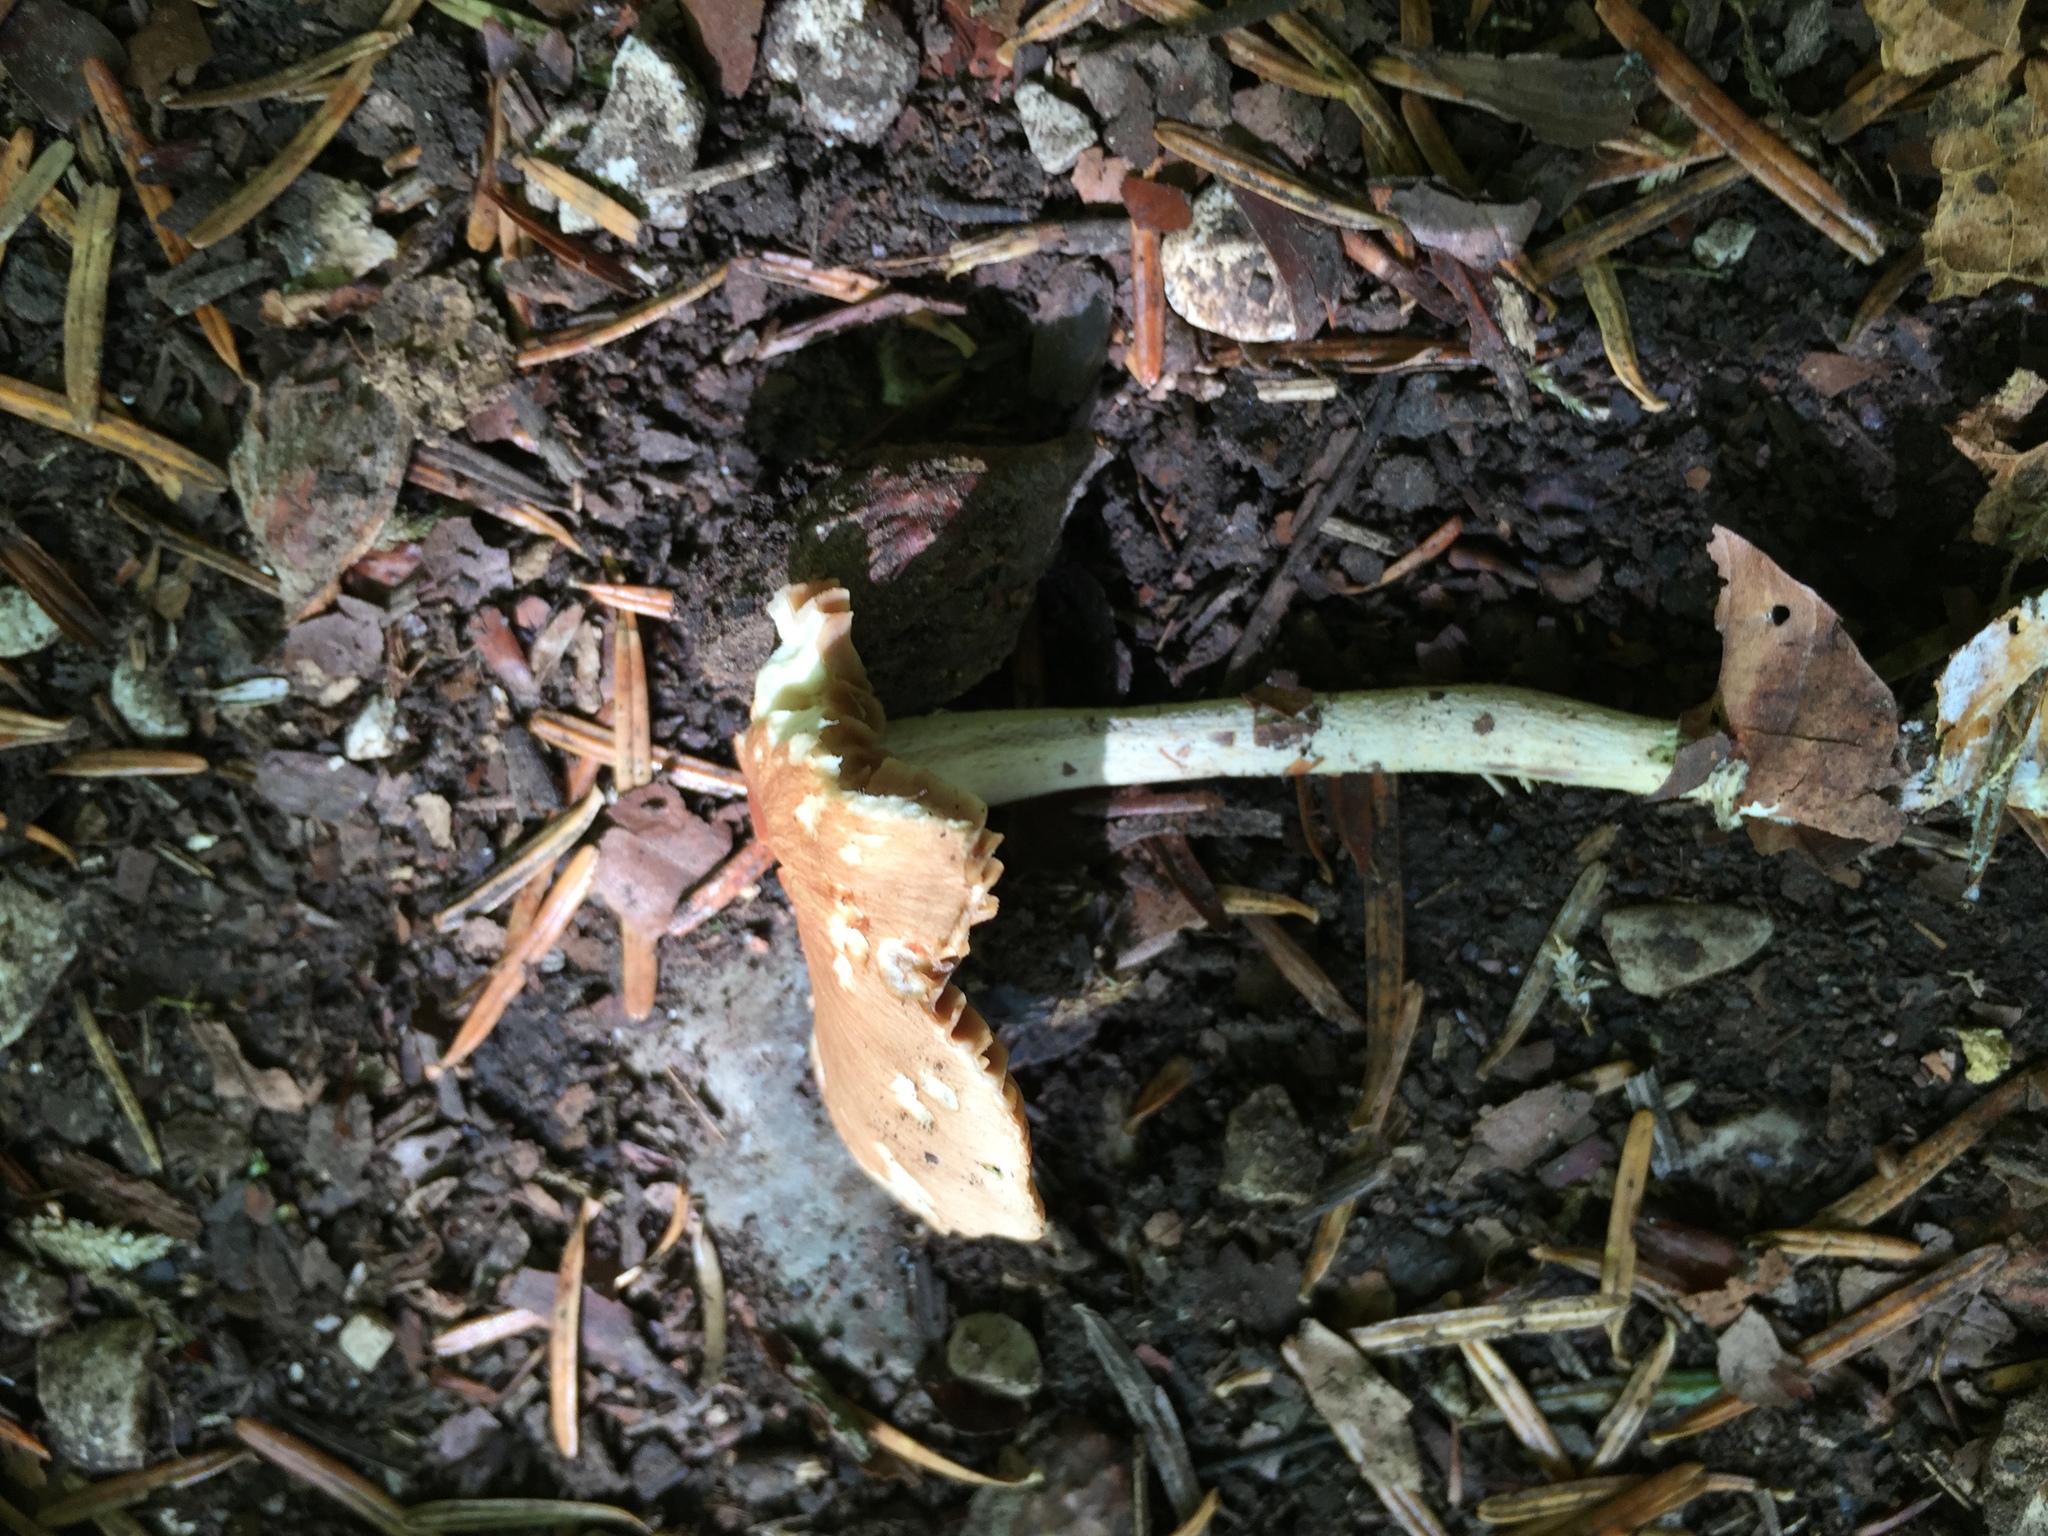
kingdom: Fungi
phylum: Basidiomycota
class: Agaricomycetes
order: Agaricales
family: Omphalotaceae
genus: Collybiopsis
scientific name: Collybiopsis peronata
